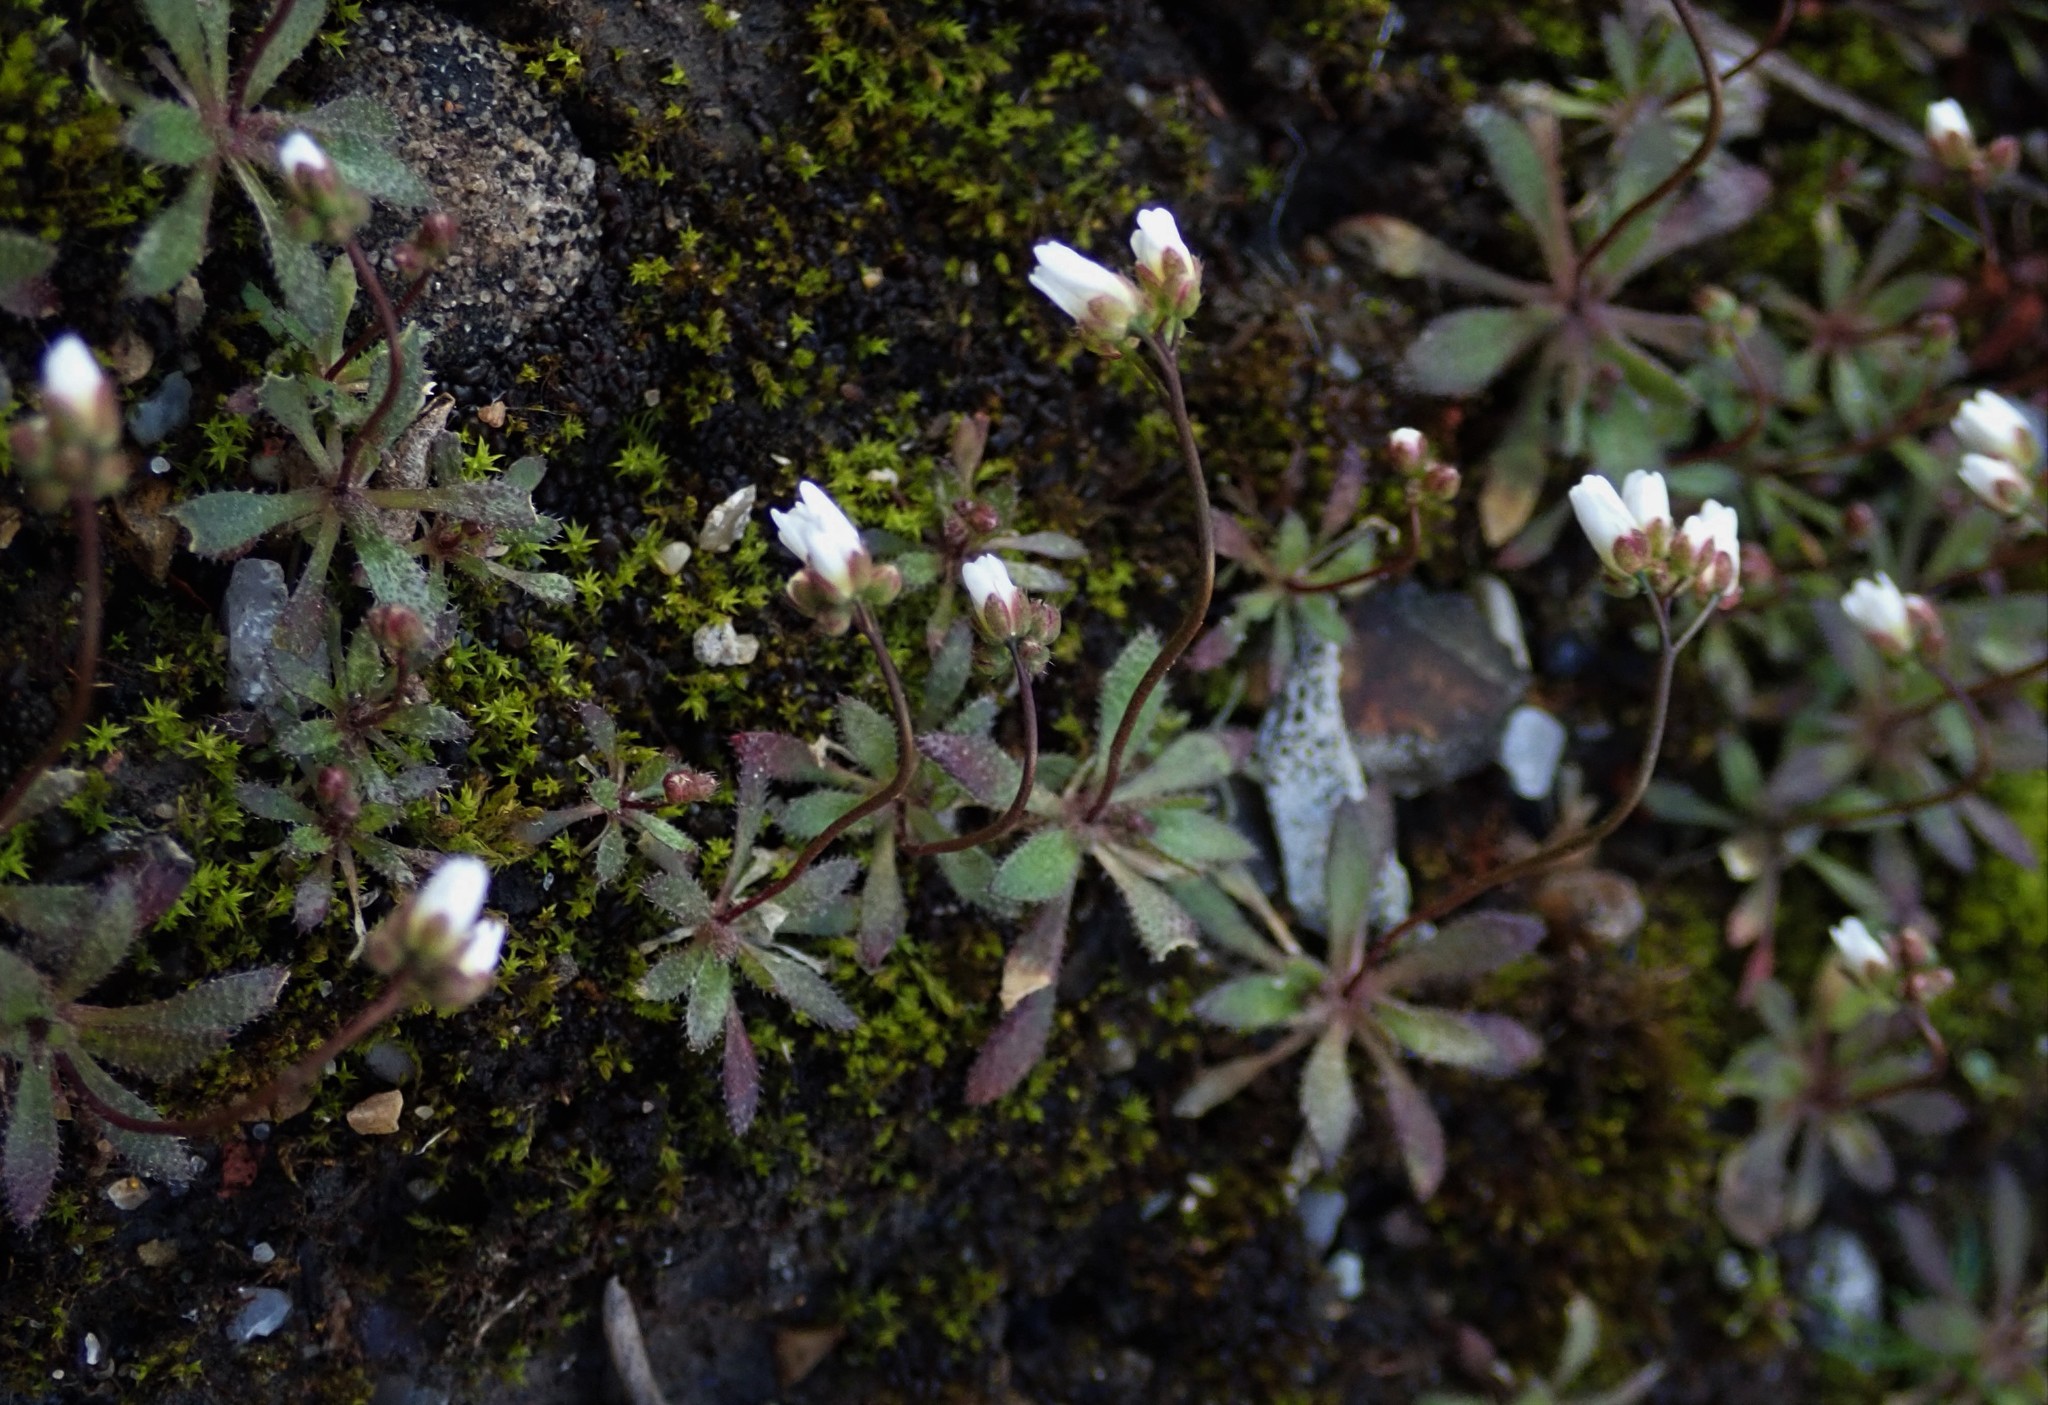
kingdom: Plantae
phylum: Tracheophyta
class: Magnoliopsida
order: Brassicales
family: Brassicaceae
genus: Draba
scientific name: Draba verna
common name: Spring draba
